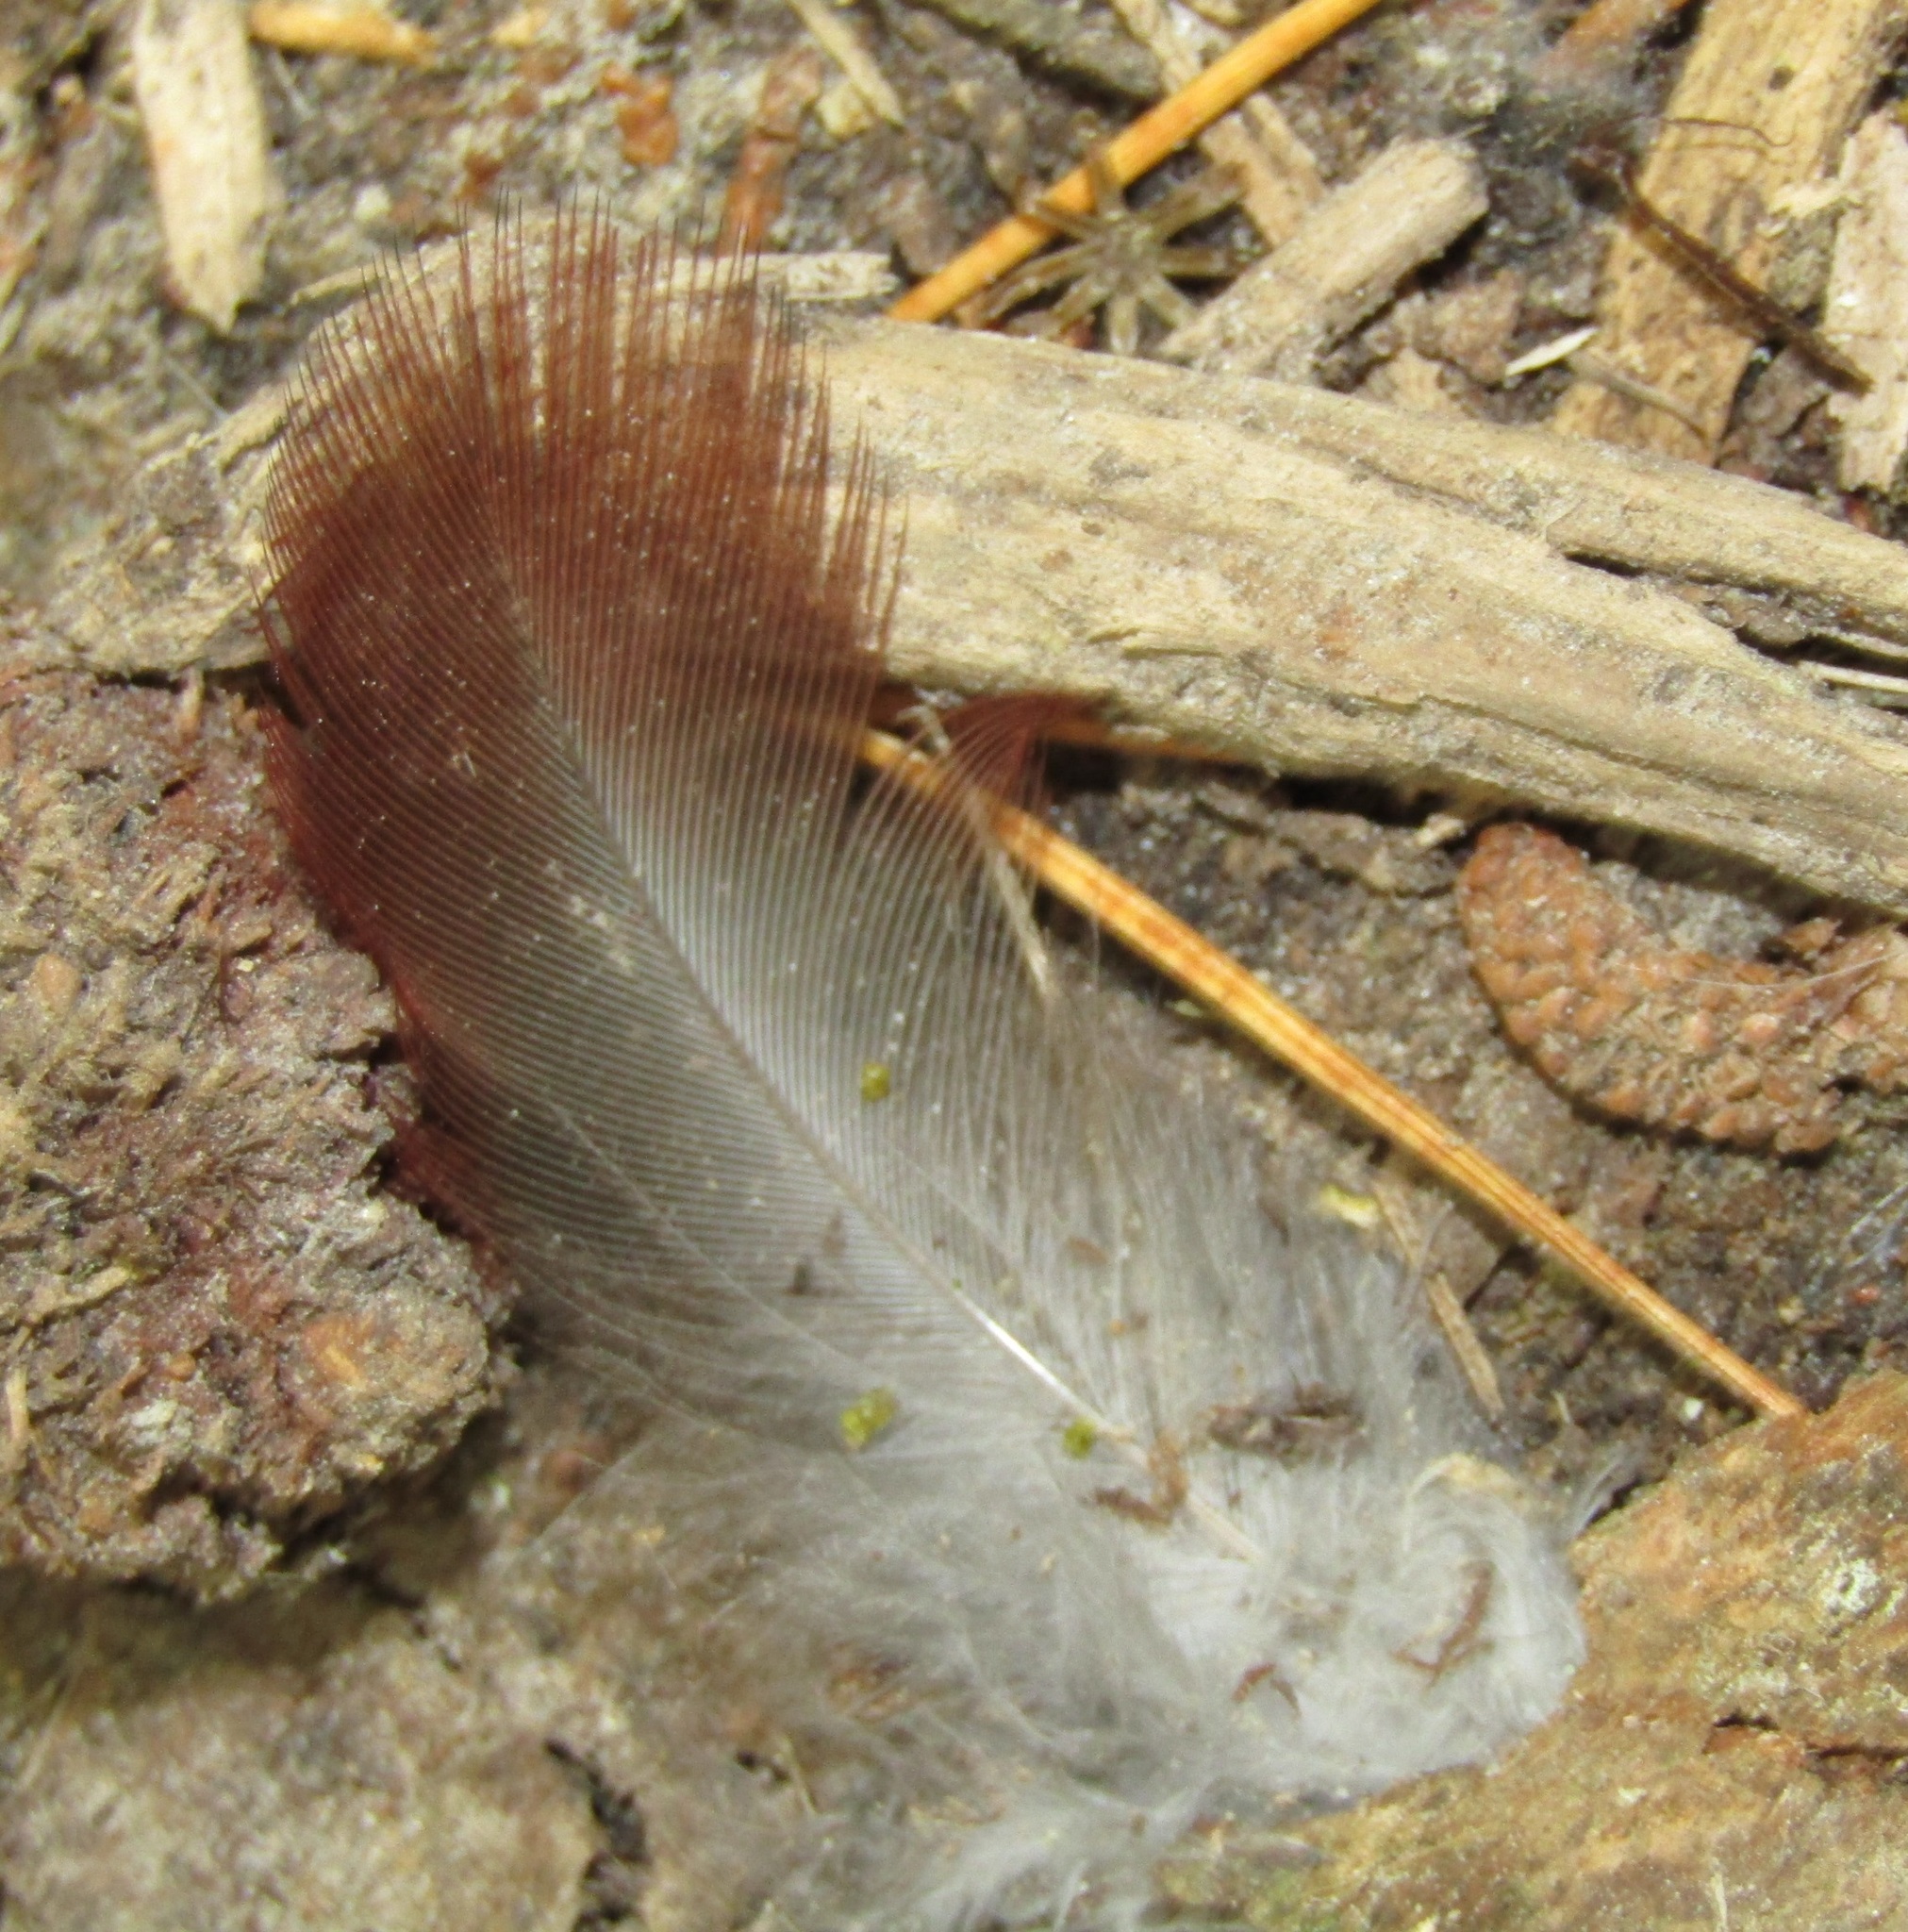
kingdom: Animalia
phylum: Chordata
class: Aves
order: Psittaciformes
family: Psittacidae
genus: Nestor
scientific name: Nestor meridionalis
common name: New zealand kaka
